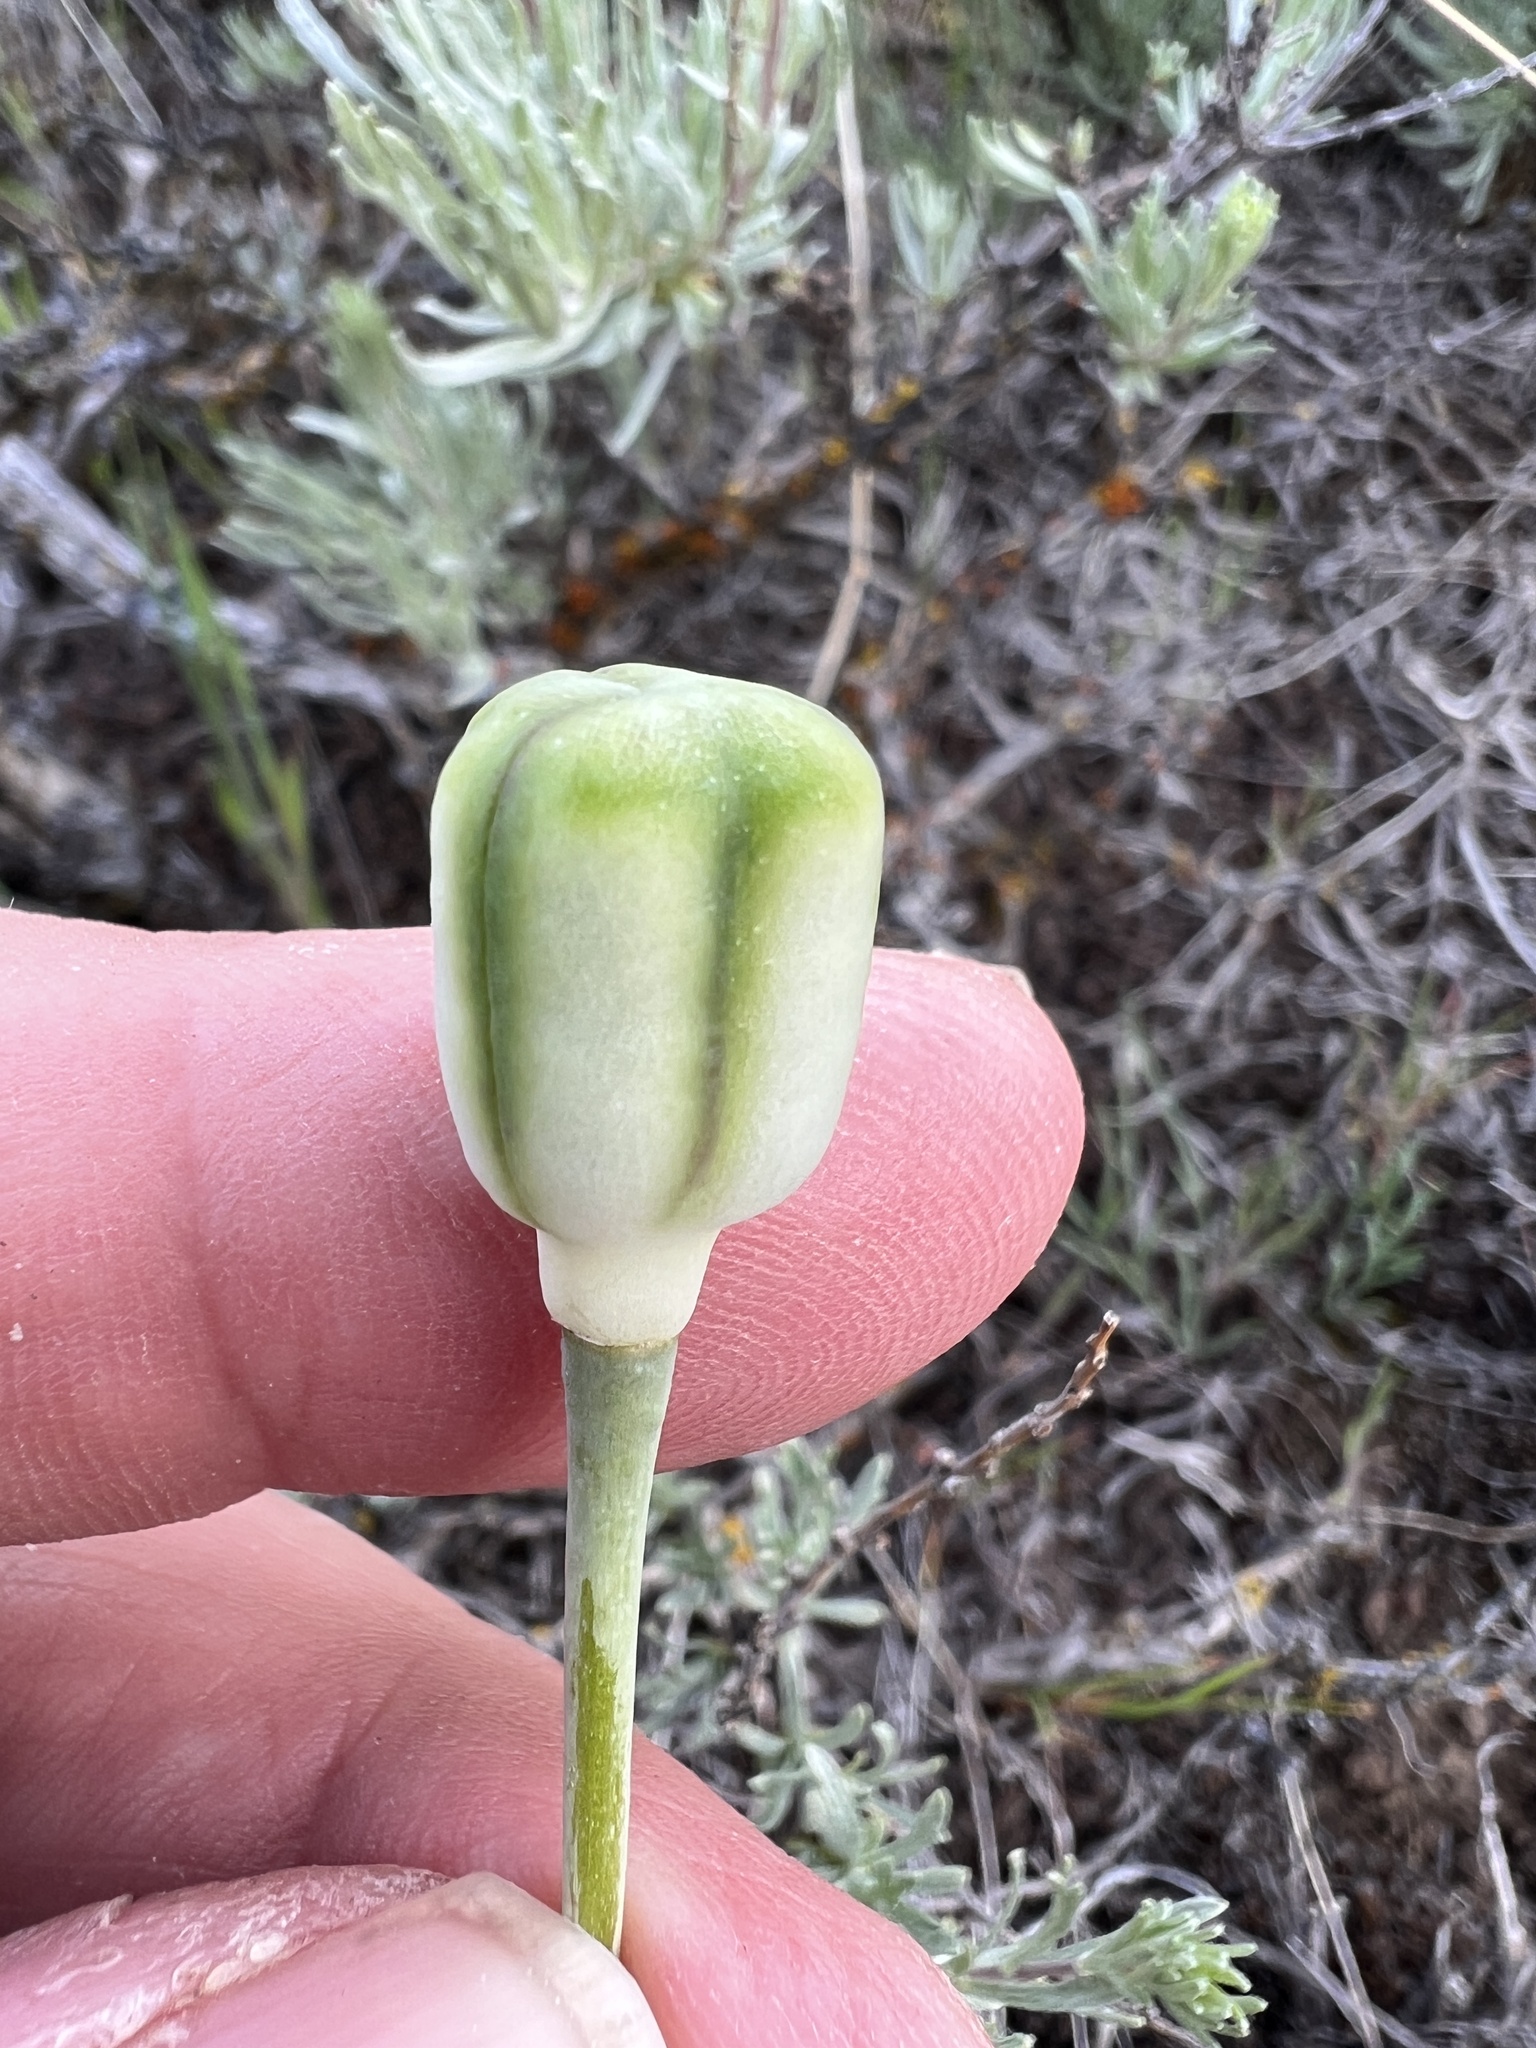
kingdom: Plantae
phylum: Tracheophyta
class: Liliopsida
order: Liliales
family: Liliaceae
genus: Fritillaria
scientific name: Fritillaria pudica
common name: Yellow fritillary
